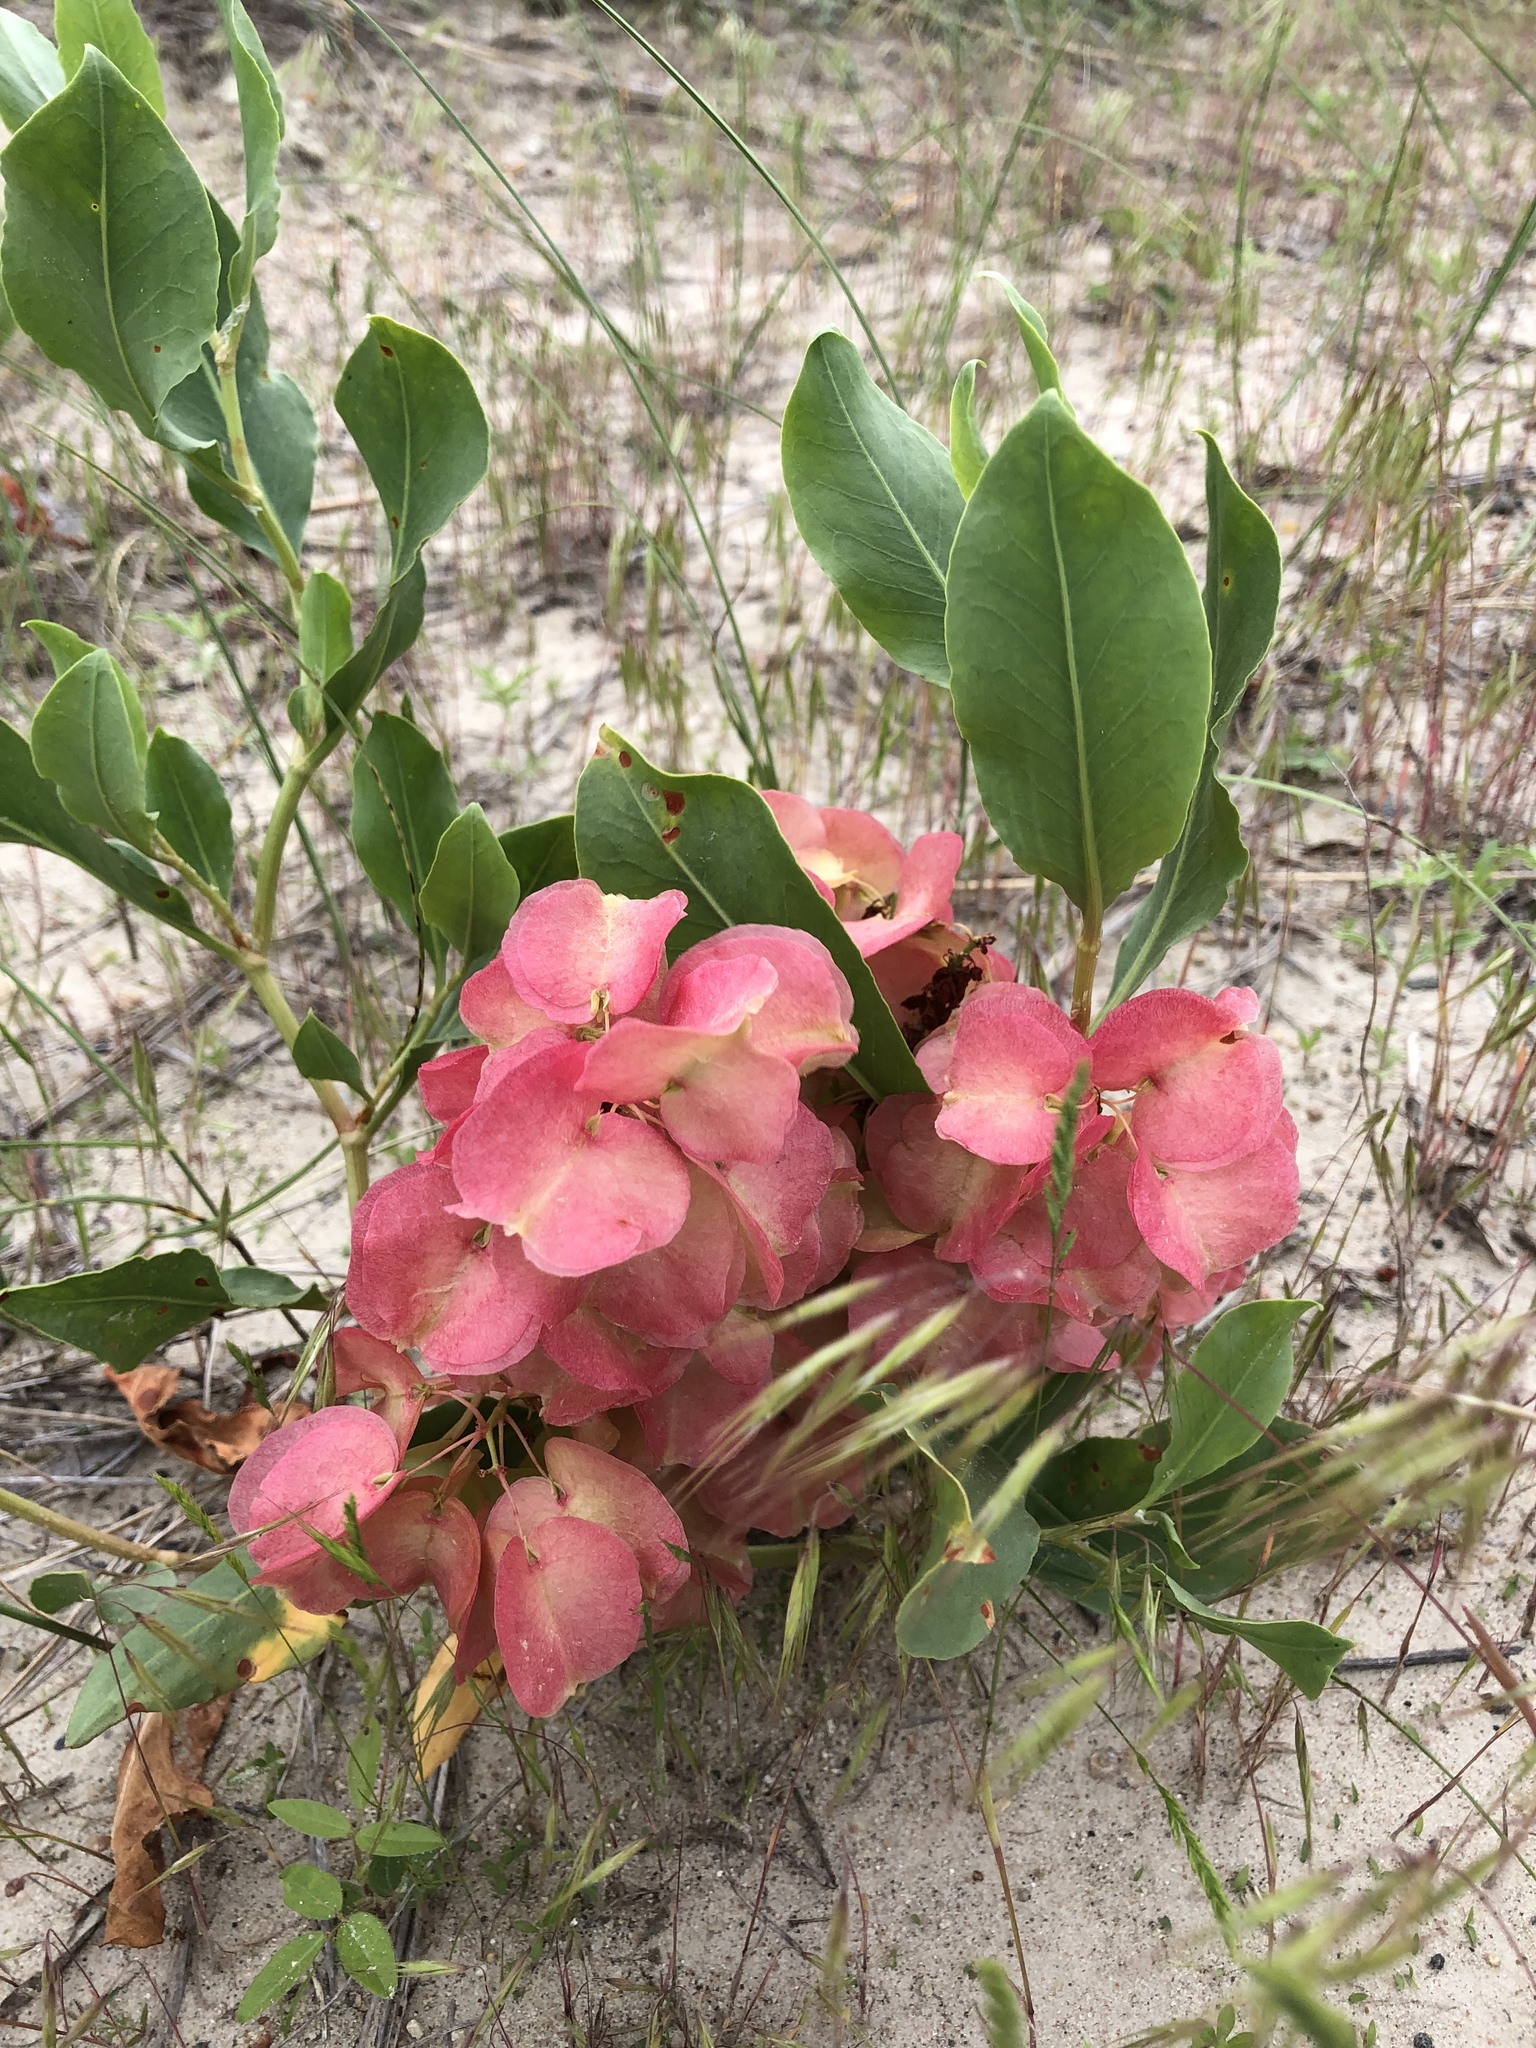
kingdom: Plantae
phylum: Tracheophyta
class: Magnoliopsida
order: Caryophyllales
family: Polygonaceae
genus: Rumex
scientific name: Rumex venosus
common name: Winged dock
